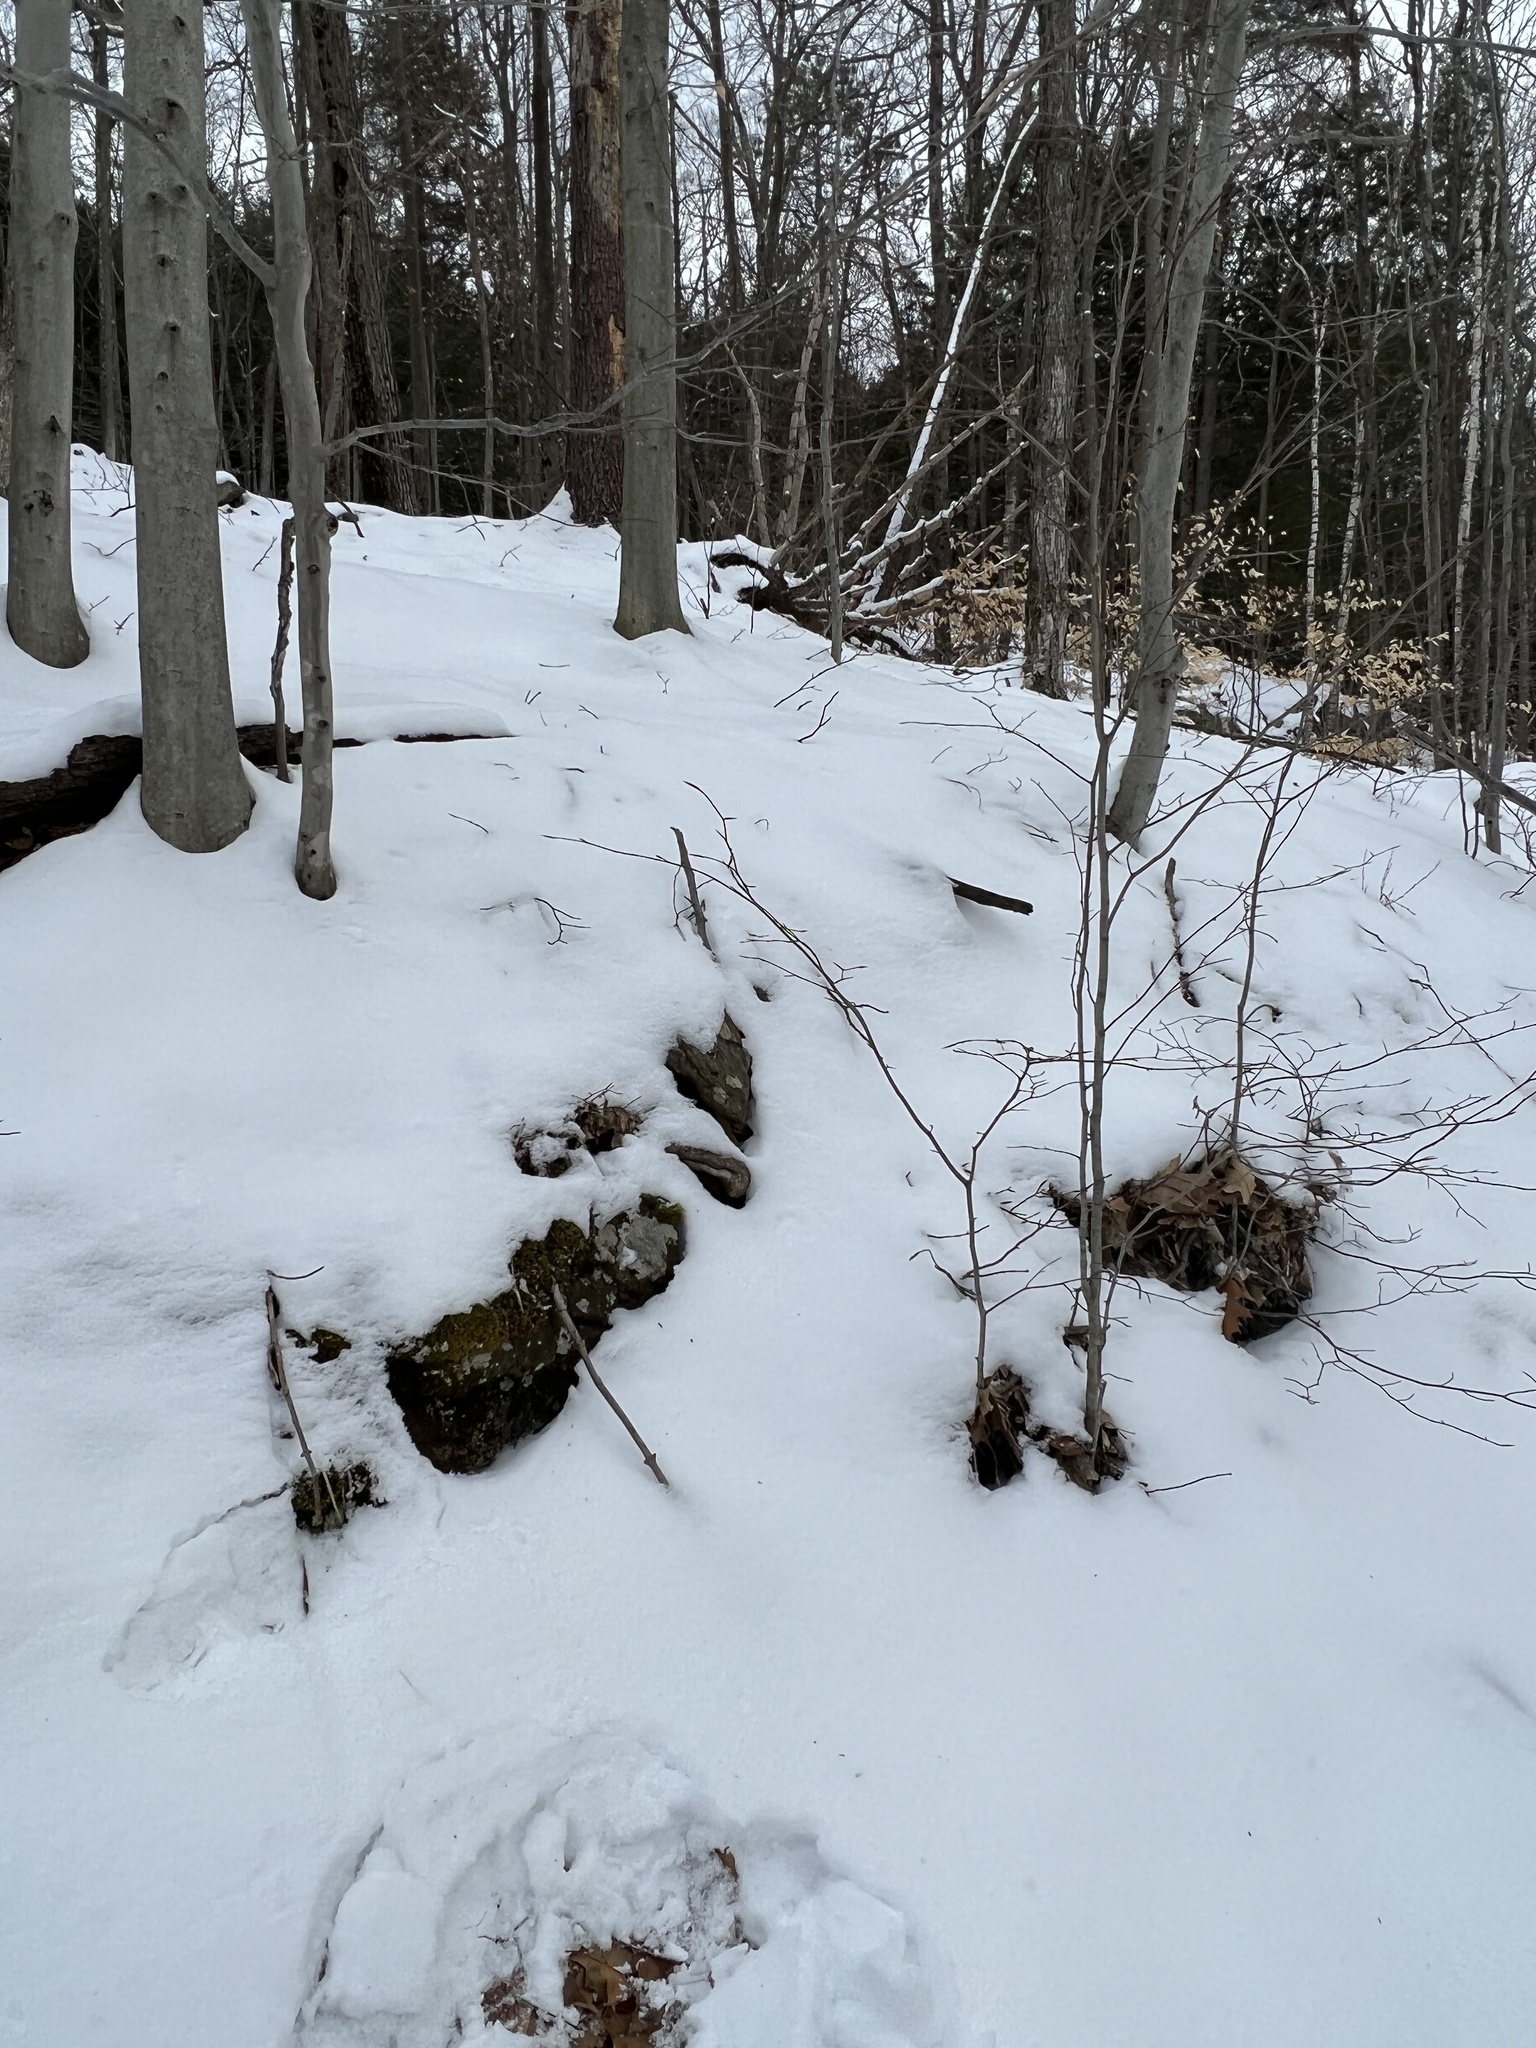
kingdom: Plantae
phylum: Tracheophyta
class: Magnoliopsida
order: Dipsacales
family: Viburnaceae
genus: Viburnum
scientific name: Viburnum lantanoides
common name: Hobblebush
